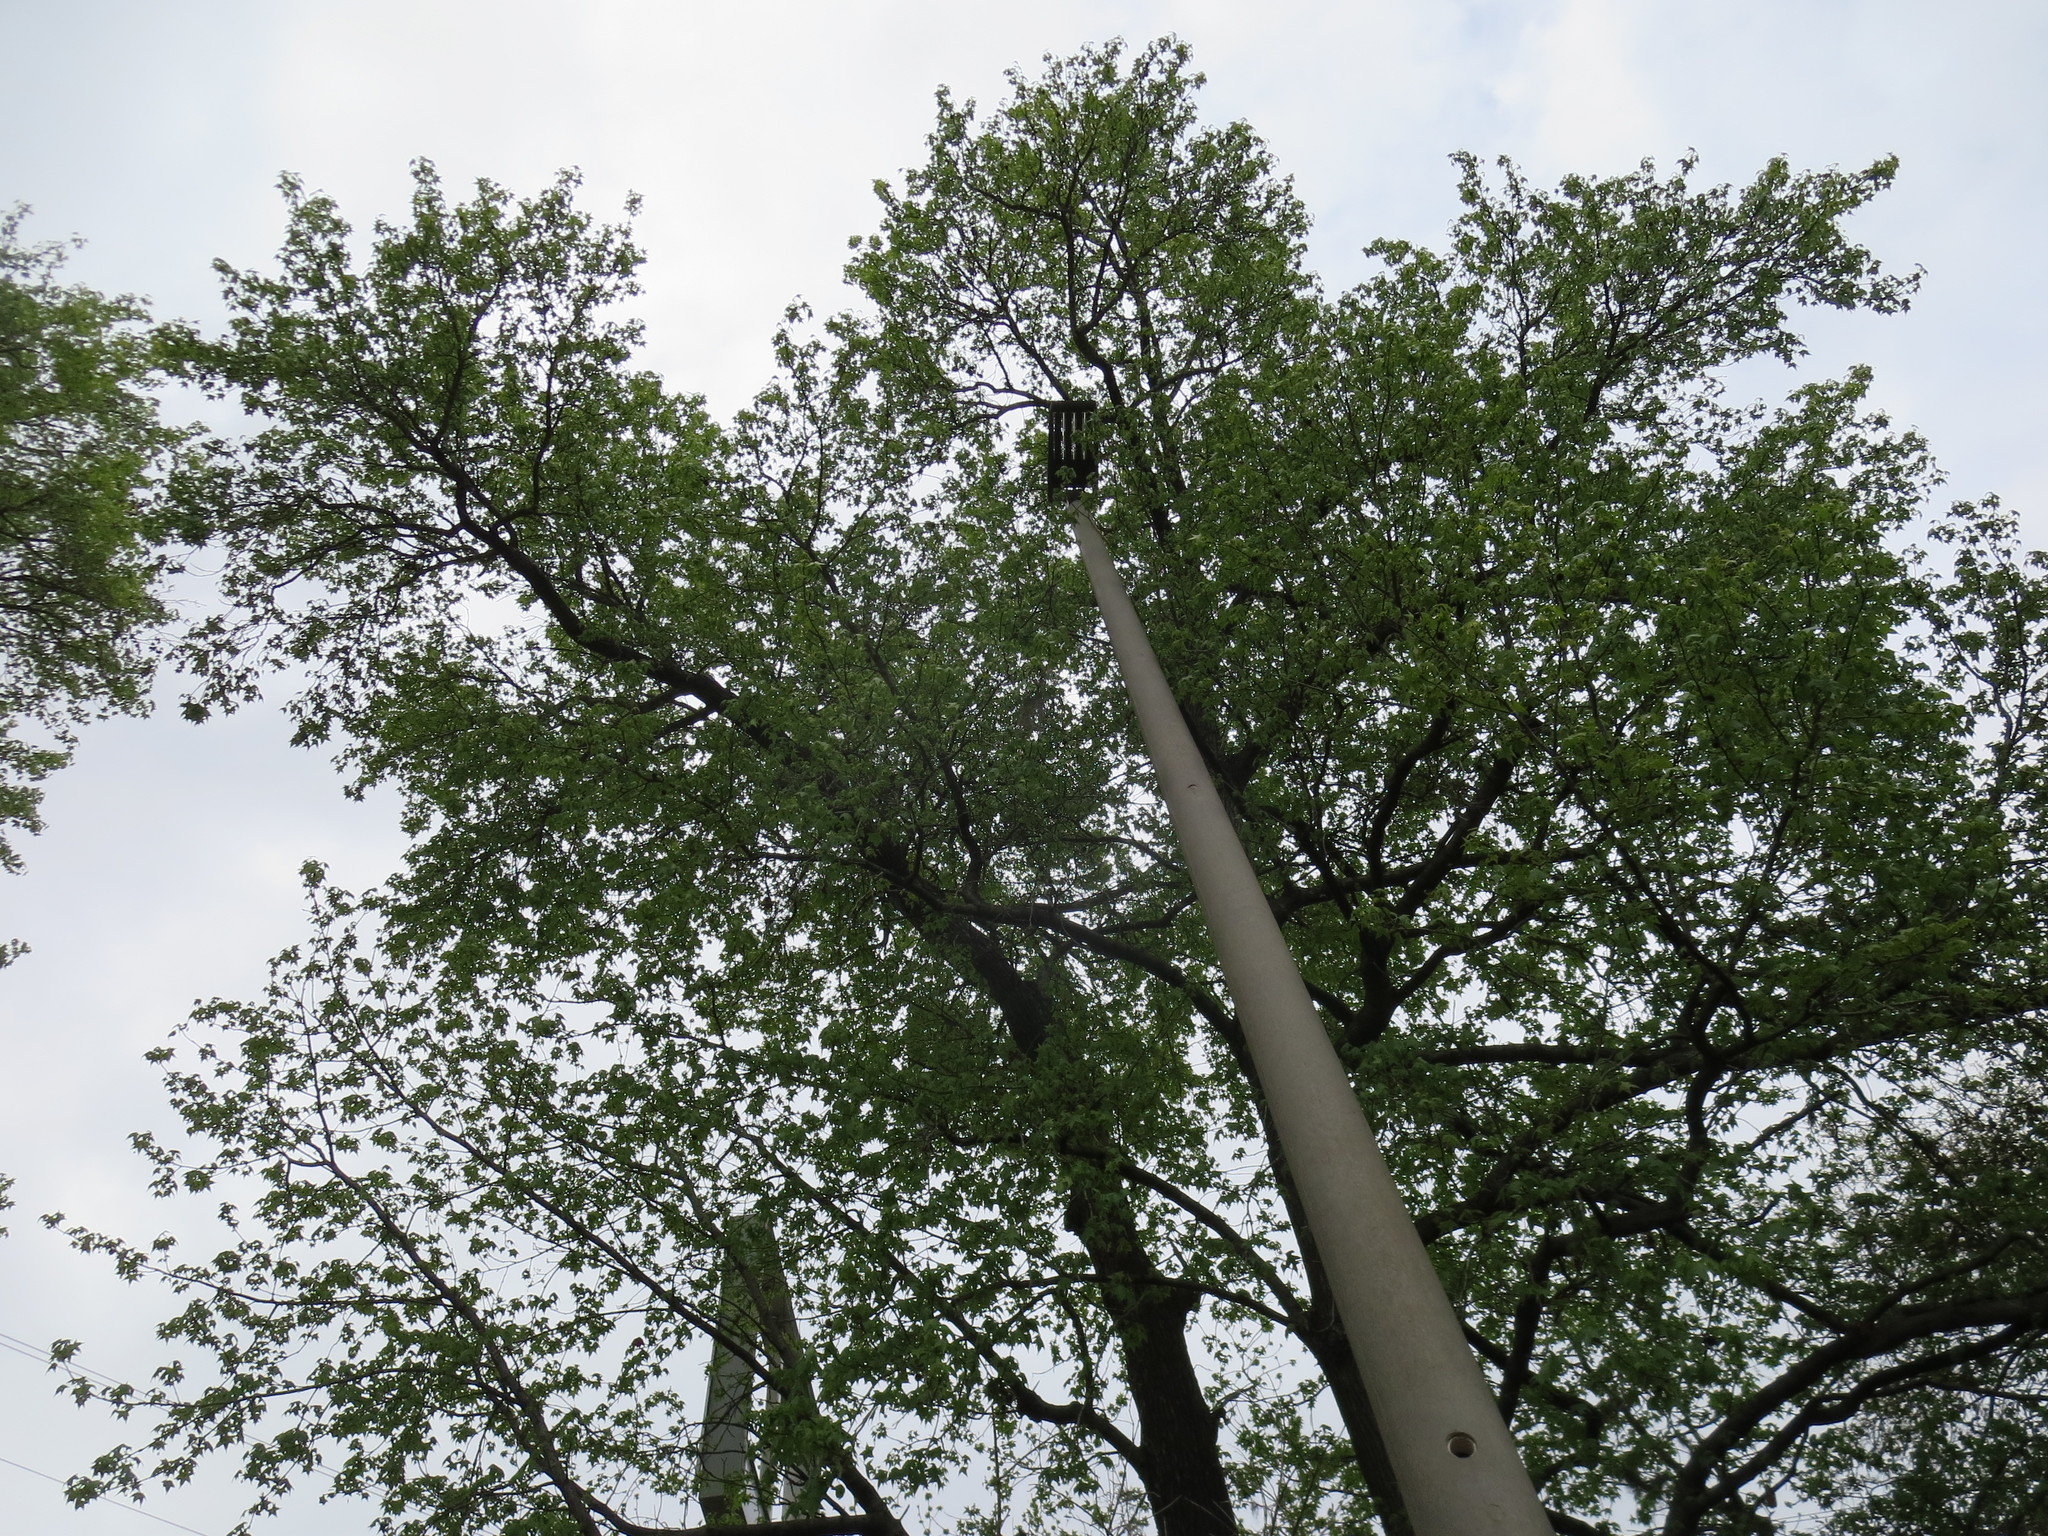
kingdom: Plantae
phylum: Tracheophyta
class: Magnoliopsida
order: Saxifragales
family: Altingiaceae
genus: Liquidambar
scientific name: Liquidambar styraciflua
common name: Sweet gum
